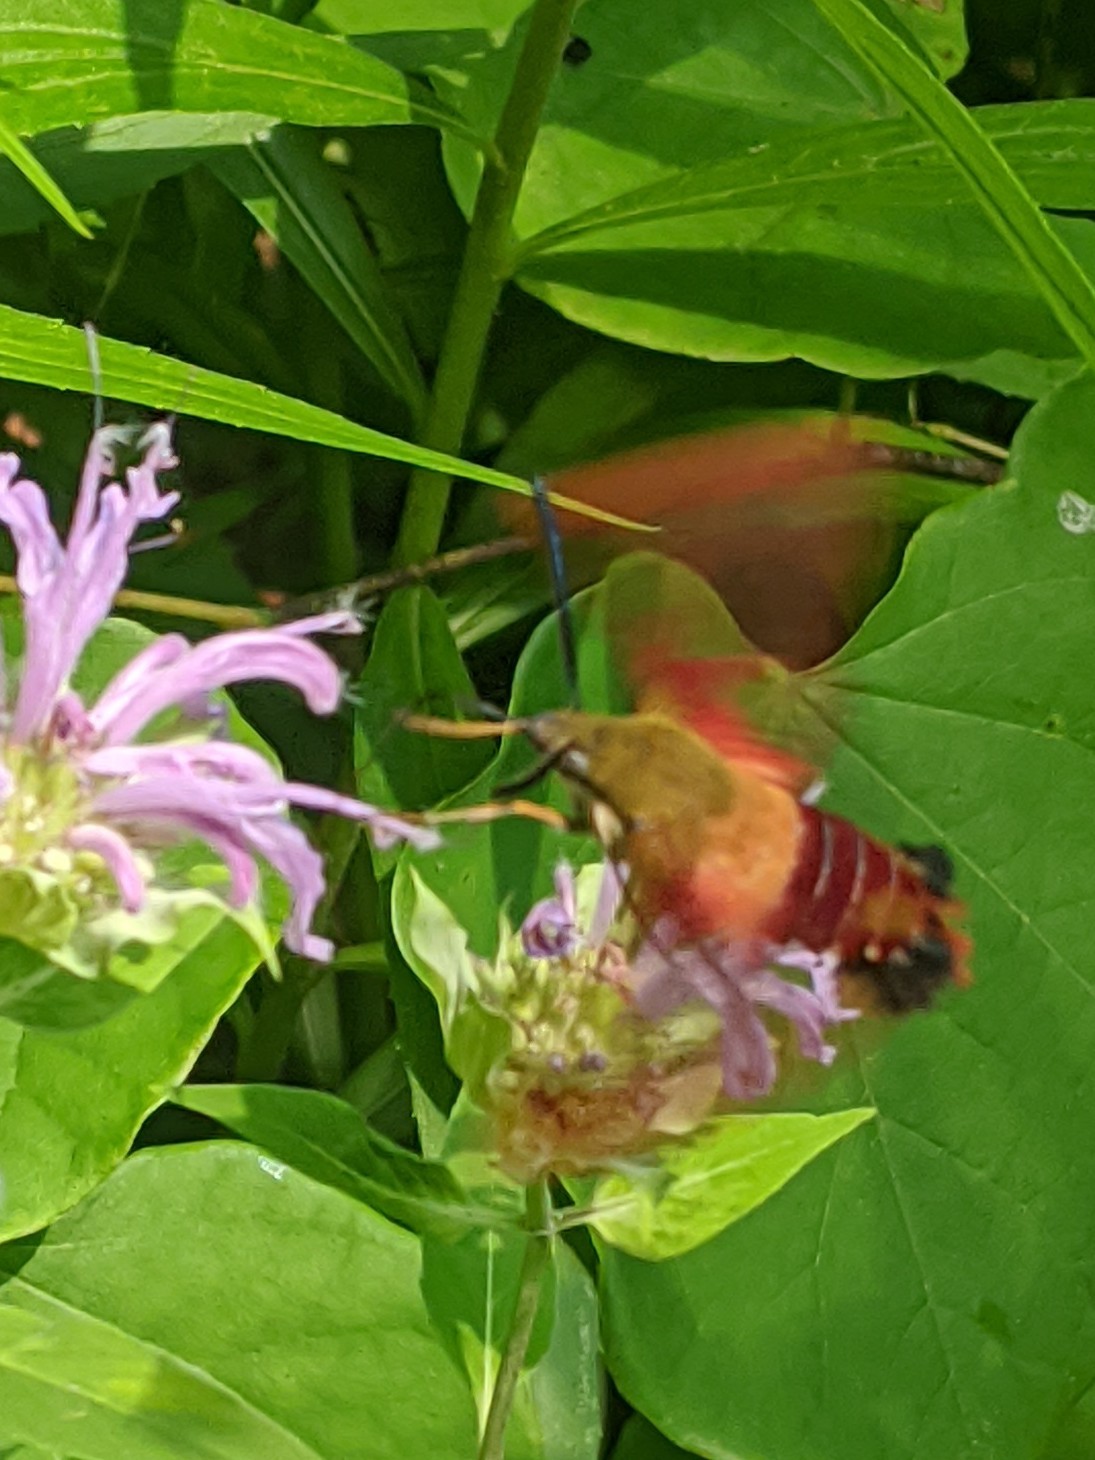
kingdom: Animalia
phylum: Arthropoda
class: Insecta
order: Lepidoptera
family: Sphingidae
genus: Hemaris
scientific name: Hemaris thysbe
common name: Common clear-wing
